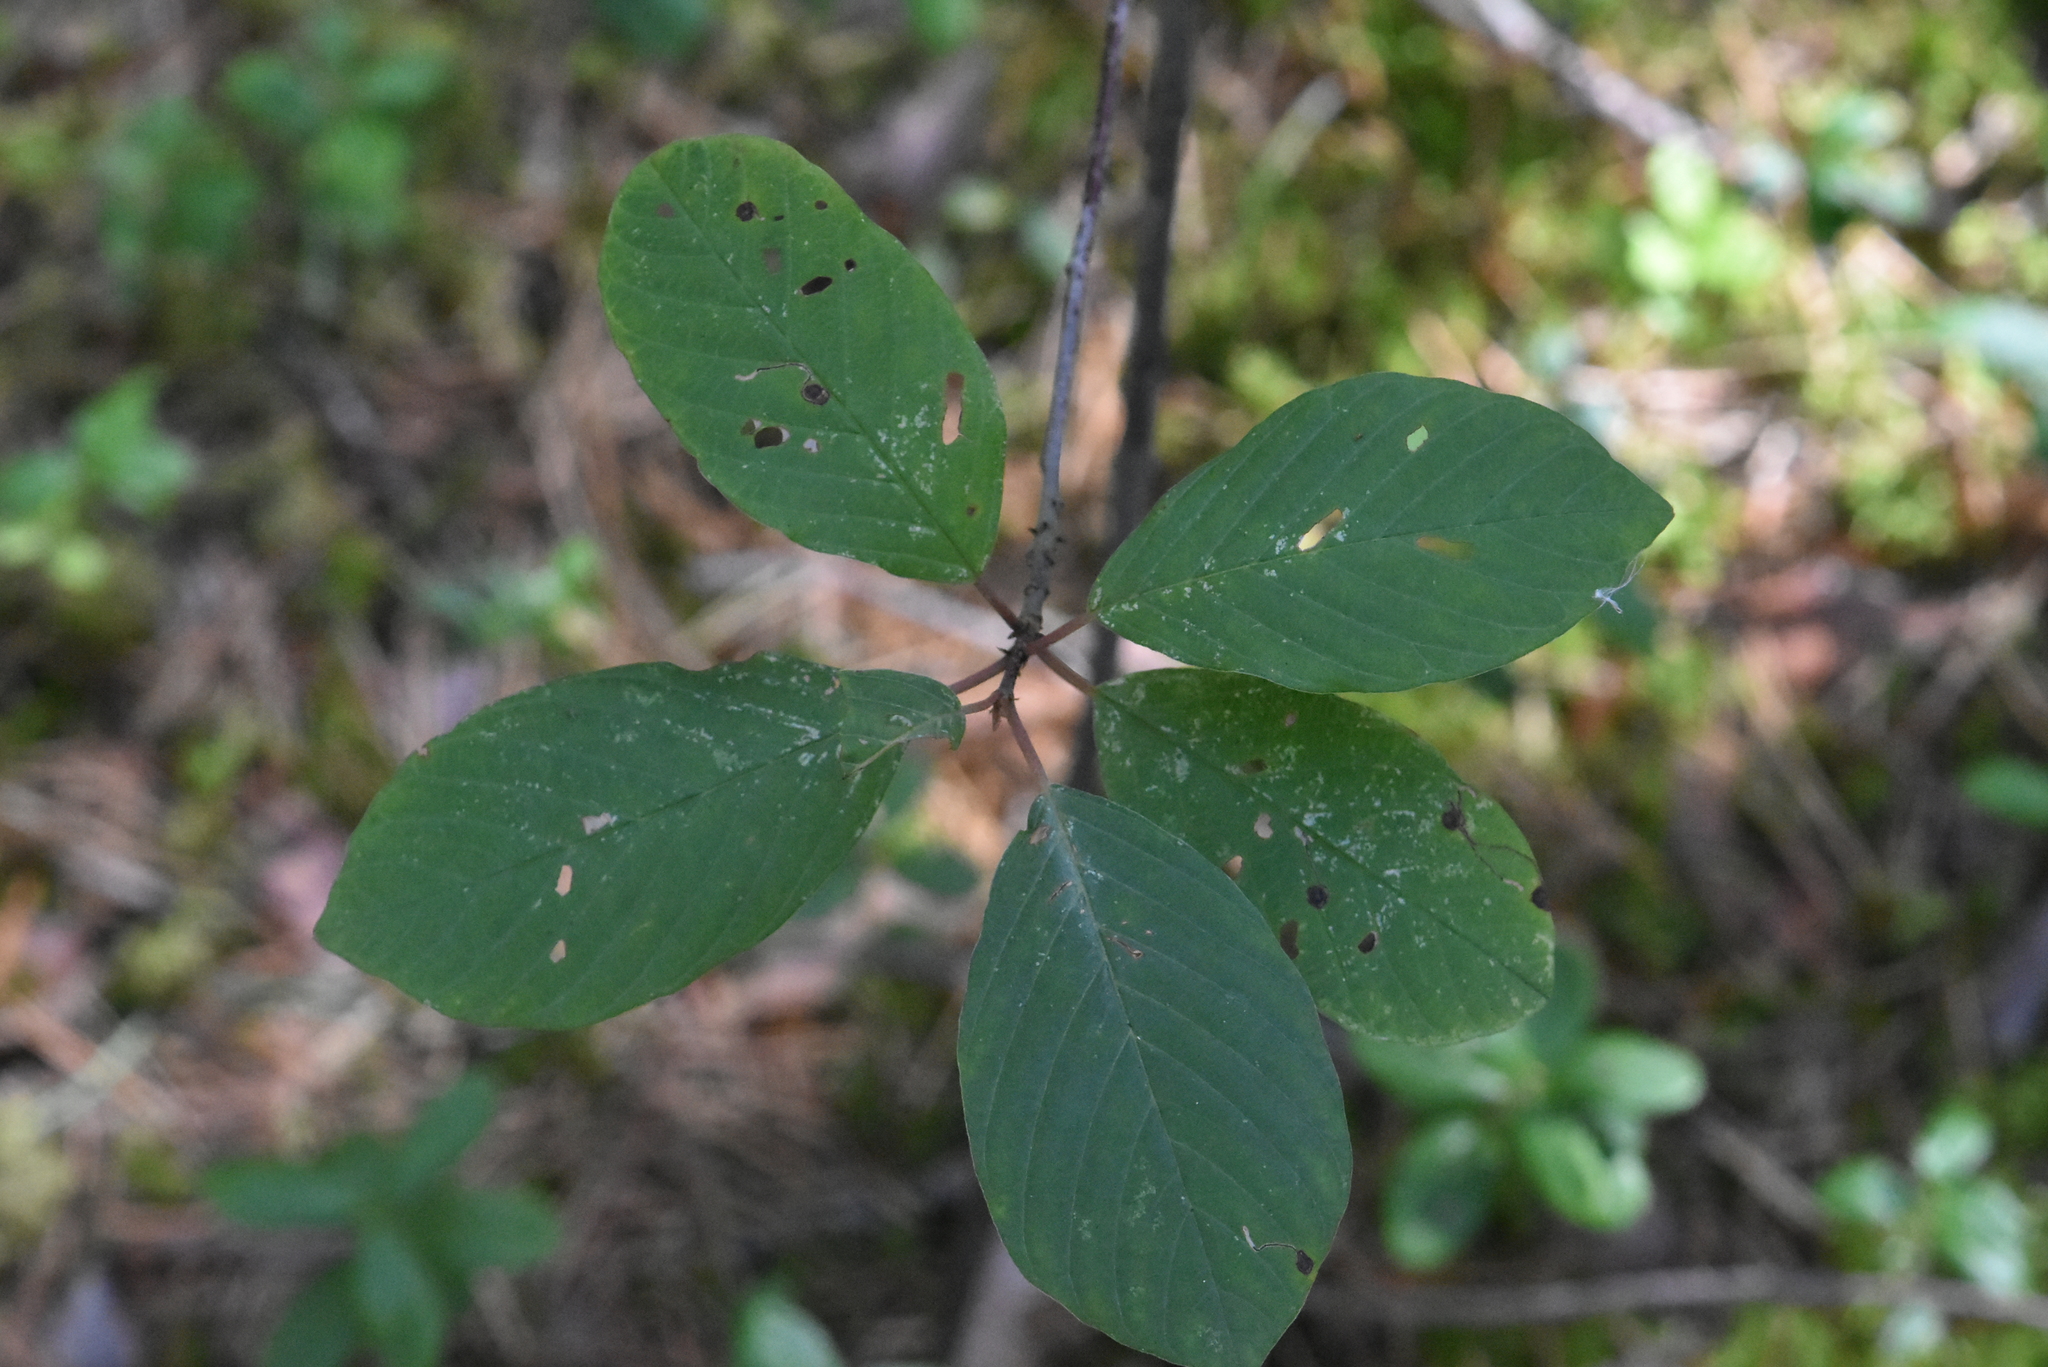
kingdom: Plantae
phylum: Tracheophyta
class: Magnoliopsida
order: Rosales
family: Rhamnaceae
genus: Frangula
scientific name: Frangula alnus
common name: Alder buckthorn
